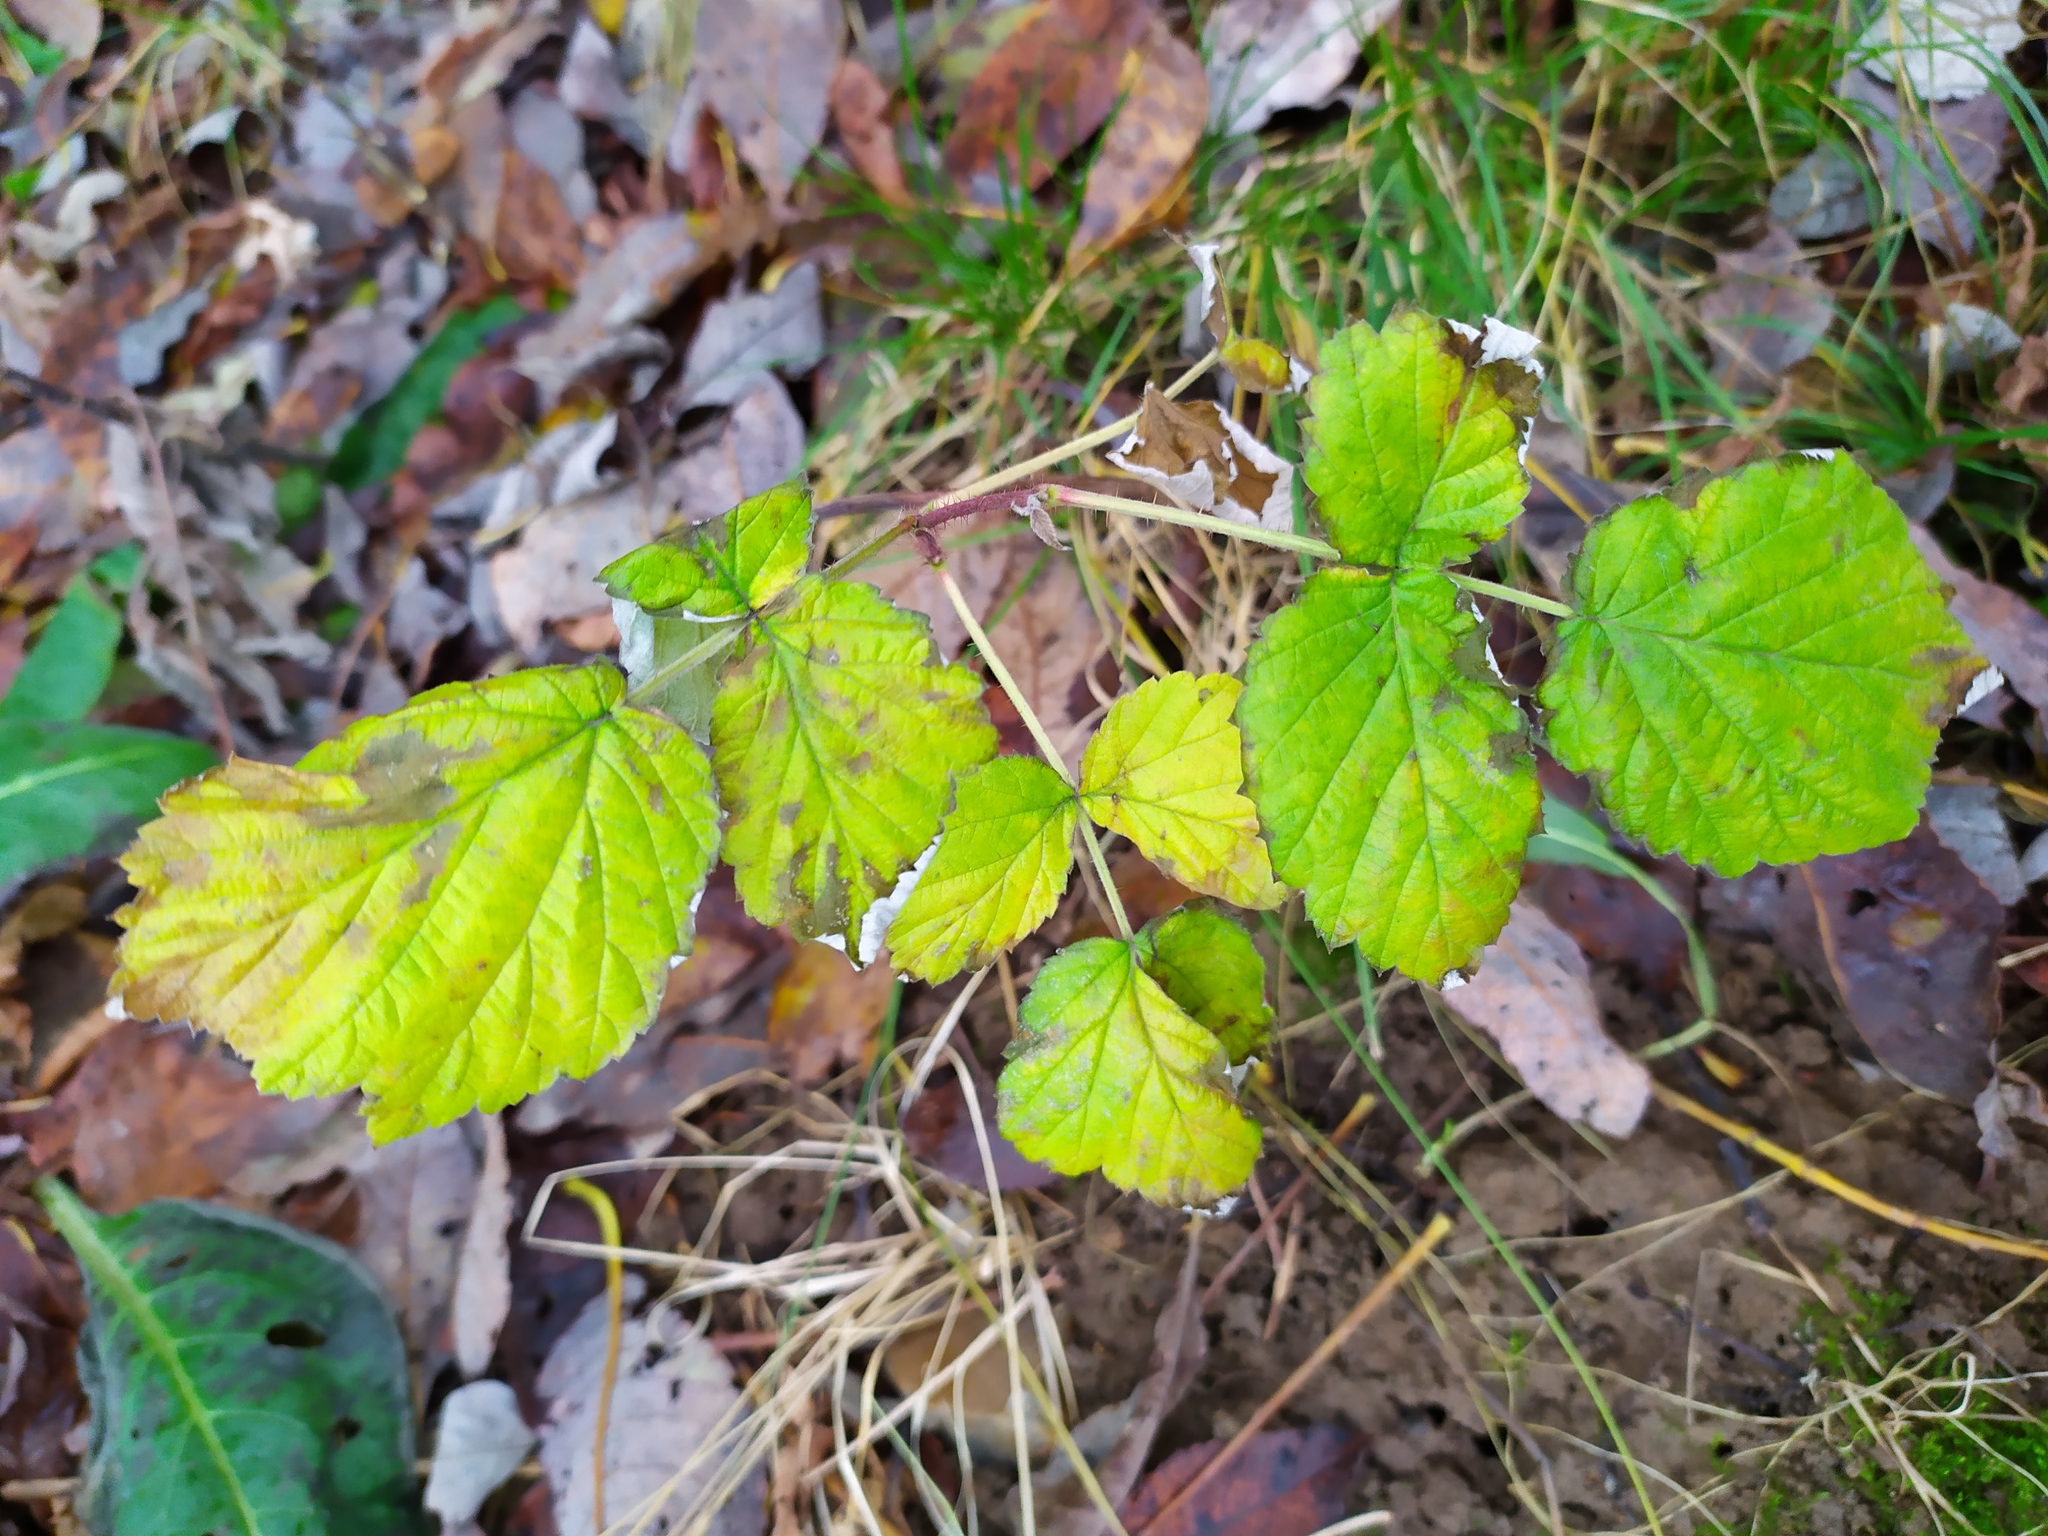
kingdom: Plantae
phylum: Tracheophyta
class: Magnoliopsida
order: Rosales
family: Rosaceae
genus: Rubus
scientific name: Rubus idaeus
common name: Raspberry
